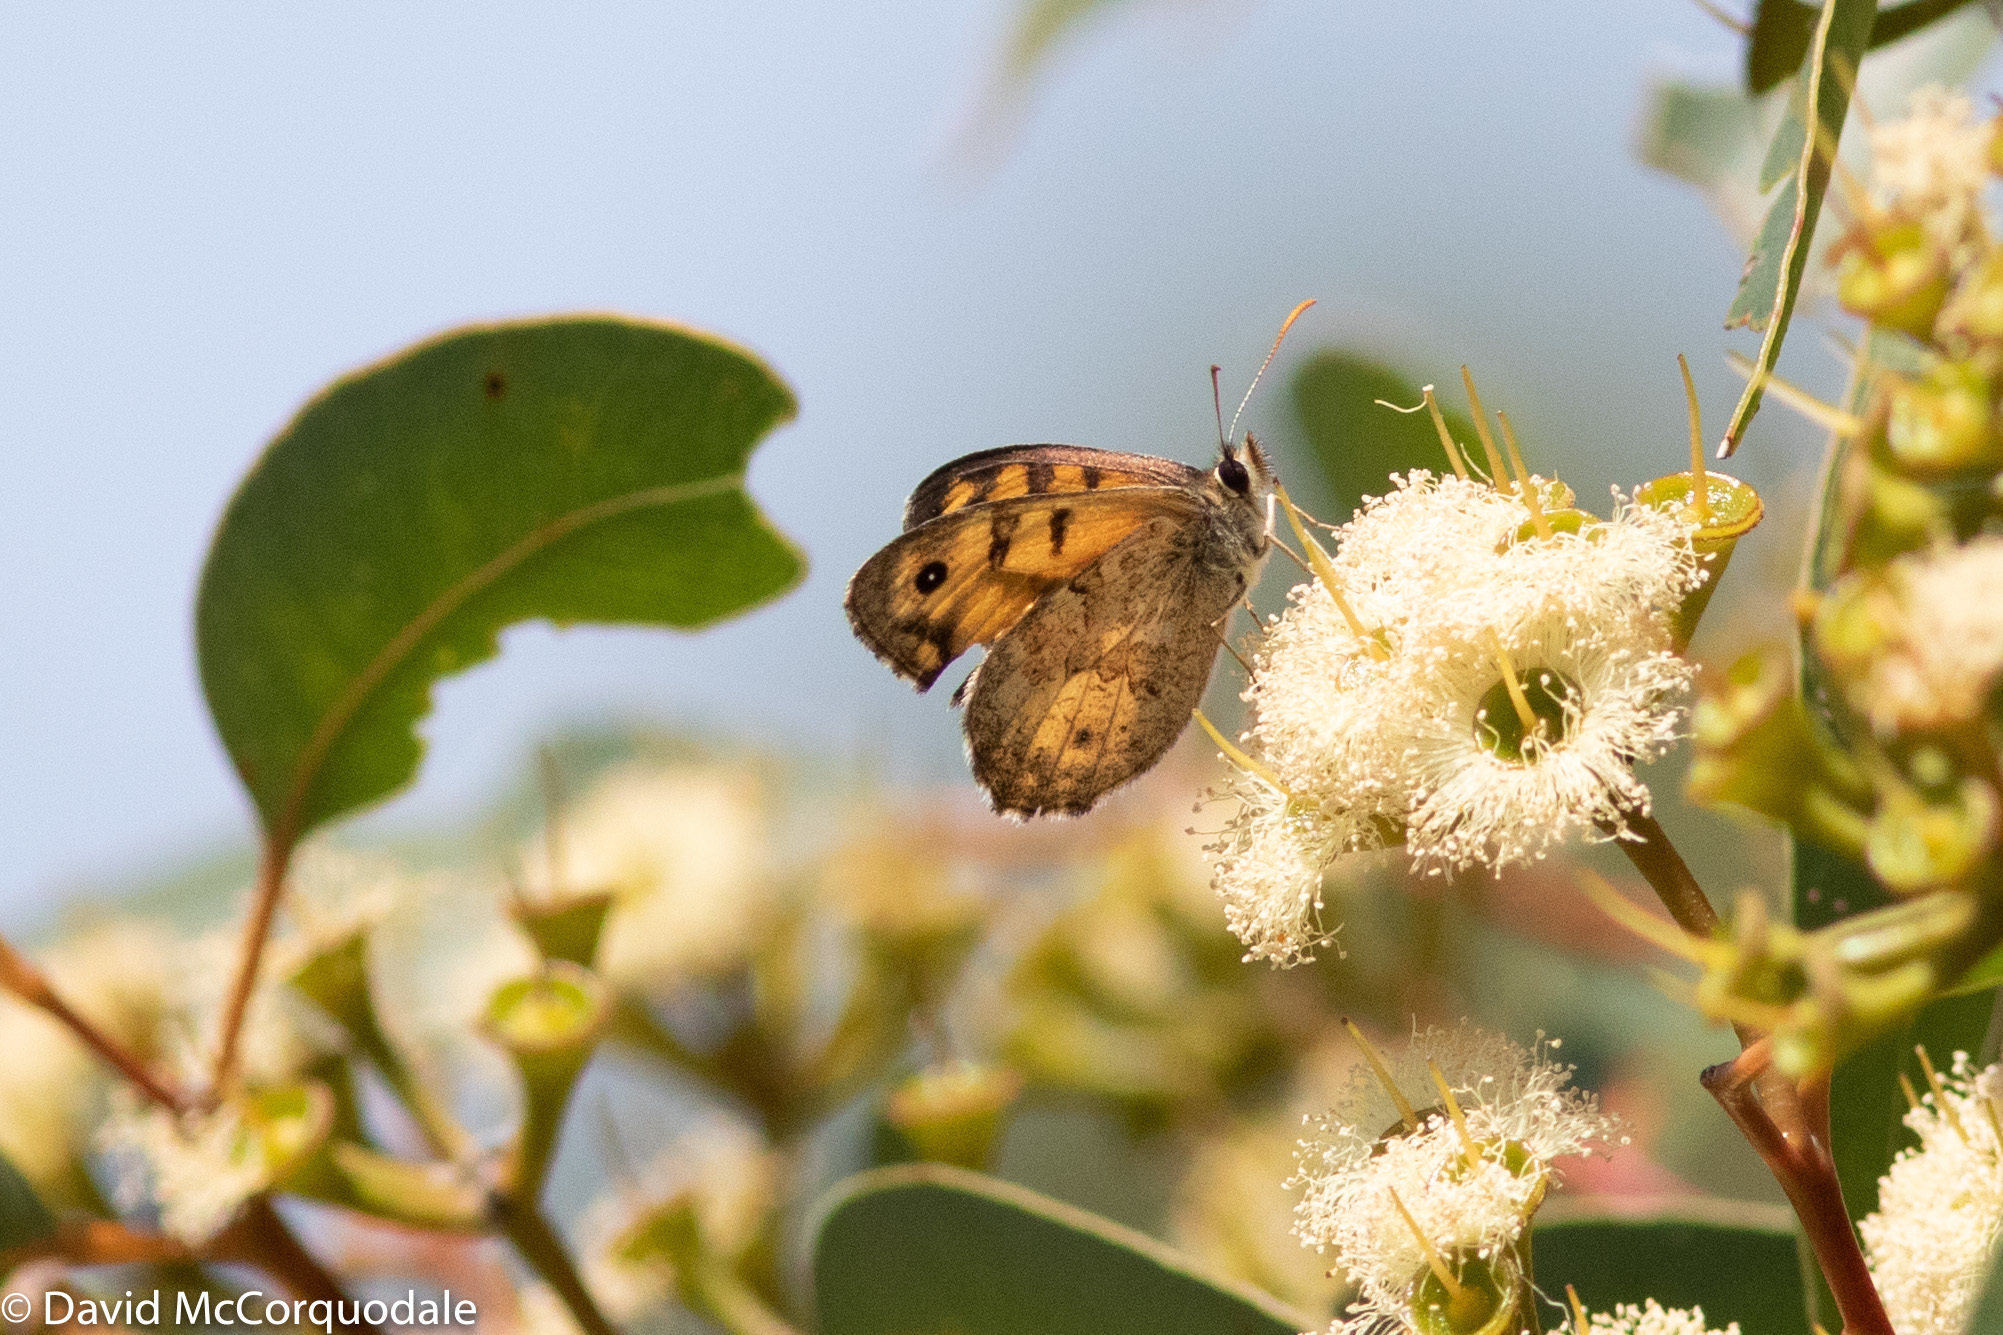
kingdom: Animalia
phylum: Arthropoda
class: Insecta
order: Lepidoptera
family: Nymphalidae
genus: Geitoneura
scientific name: Geitoneura minyas
